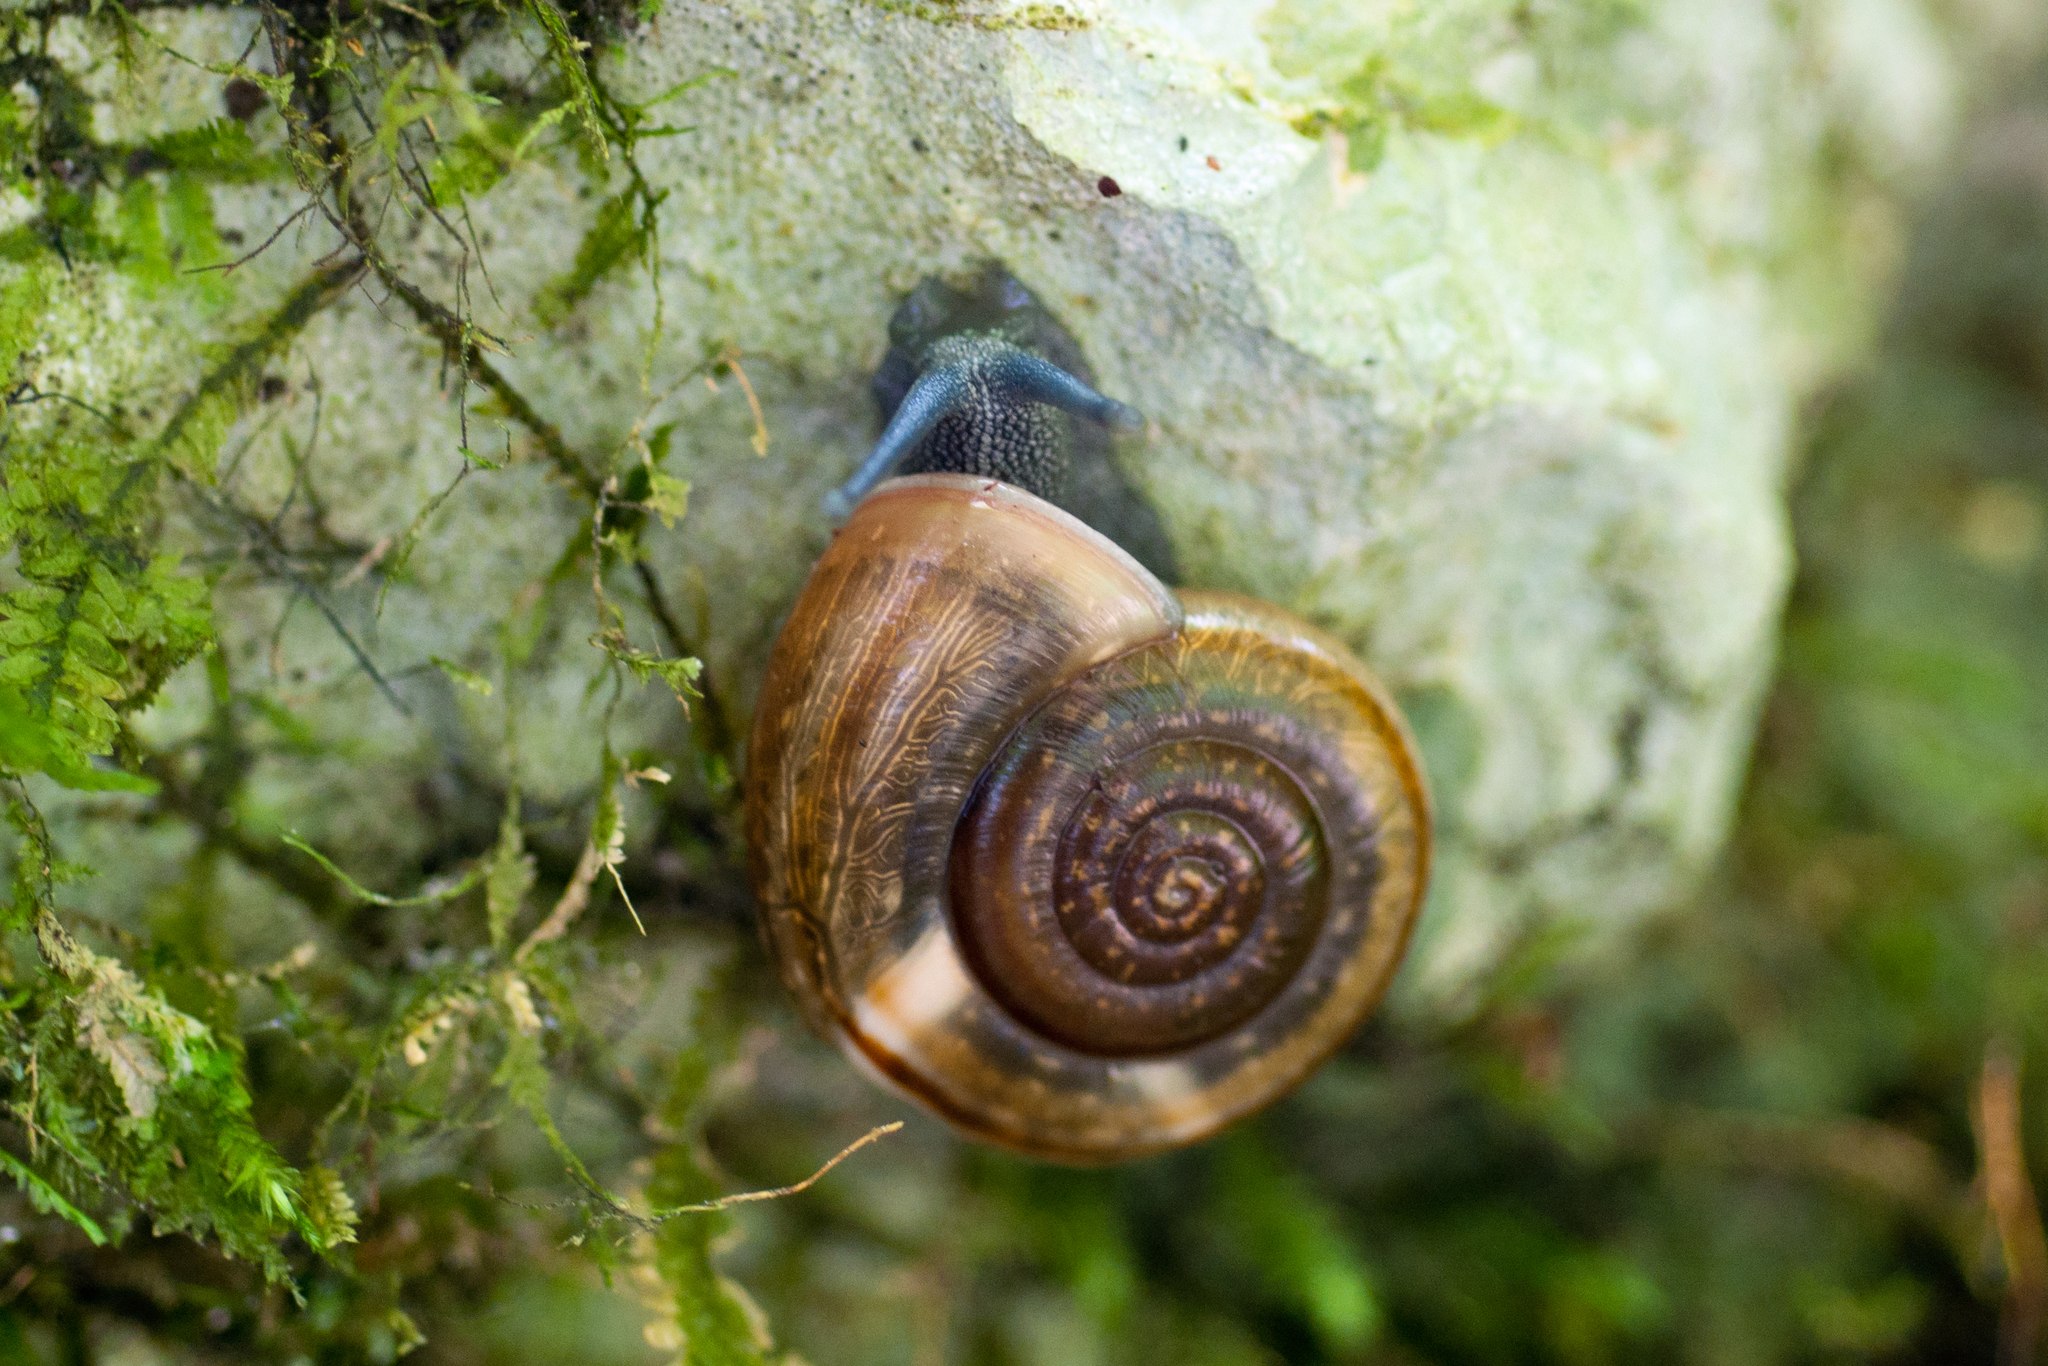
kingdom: Animalia
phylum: Mollusca
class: Gastropoda
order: Stylommatophora
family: Helicidae
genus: Campylaea
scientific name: Campylaea illyrica
